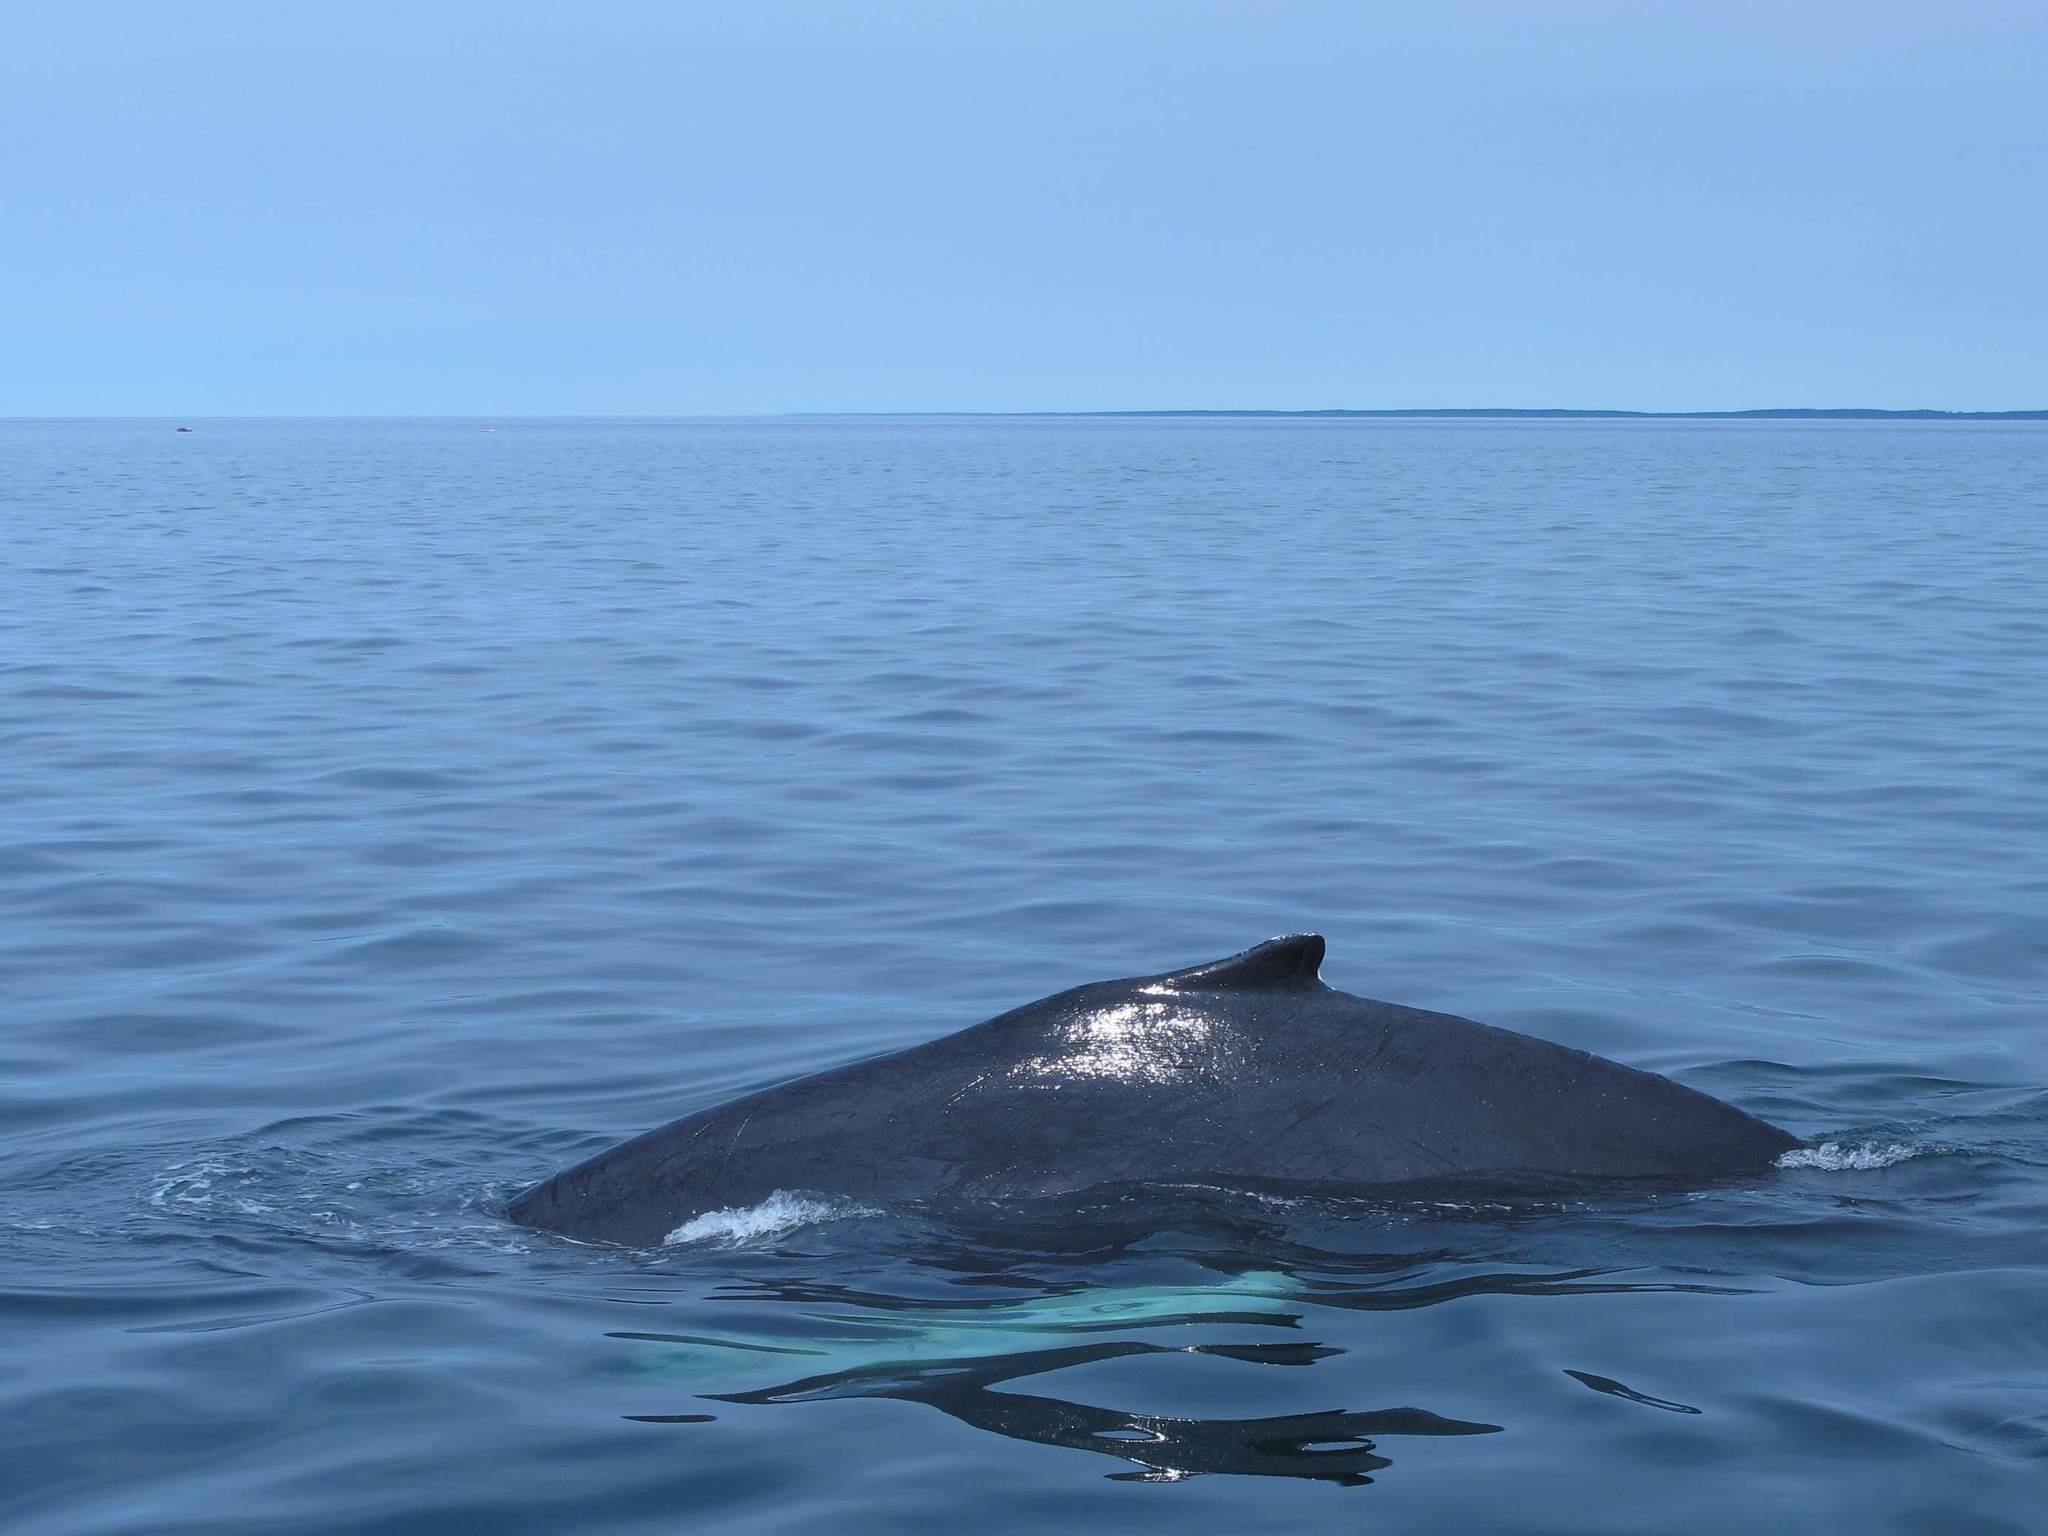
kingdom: Animalia
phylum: Chordata
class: Mammalia
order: Cetacea
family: Balaenopteridae
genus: Megaptera
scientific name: Megaptera novaeangliae
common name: Humpback whale
